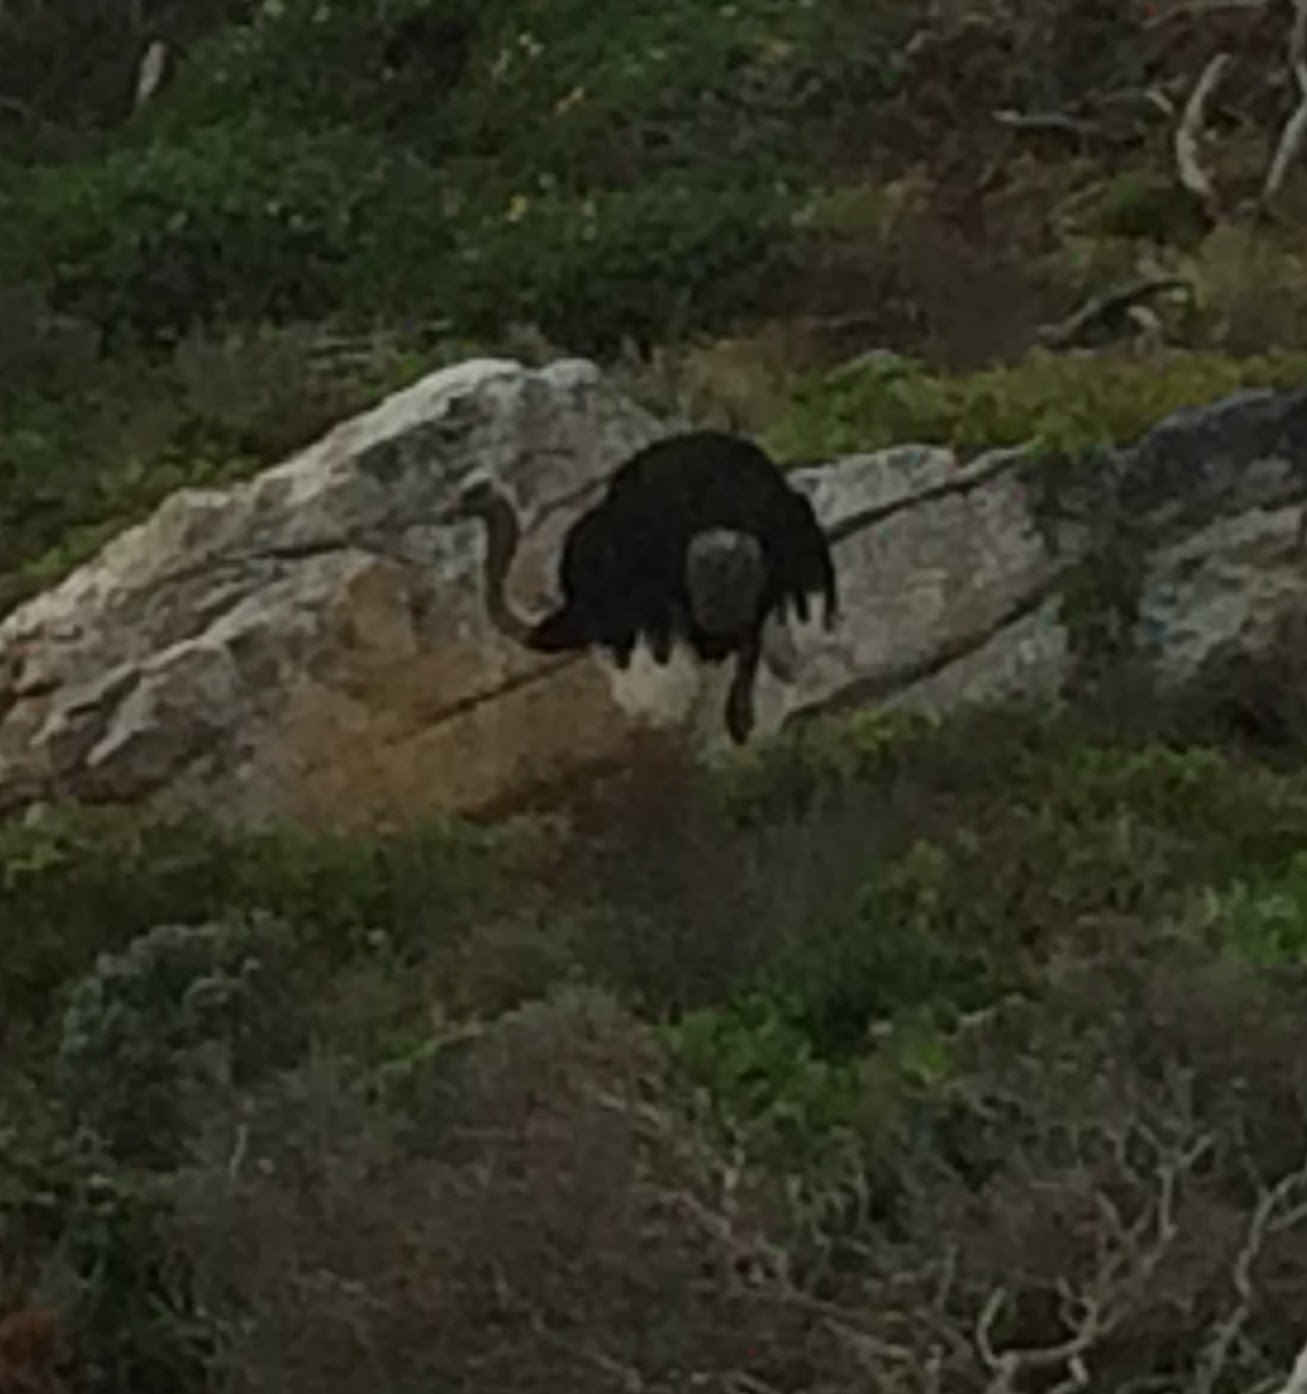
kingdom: Animalia
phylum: Chordata
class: Aves
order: Struthioniformes
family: Struthionidae
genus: Struthio
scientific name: Struthio camelus
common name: Common ostrich
